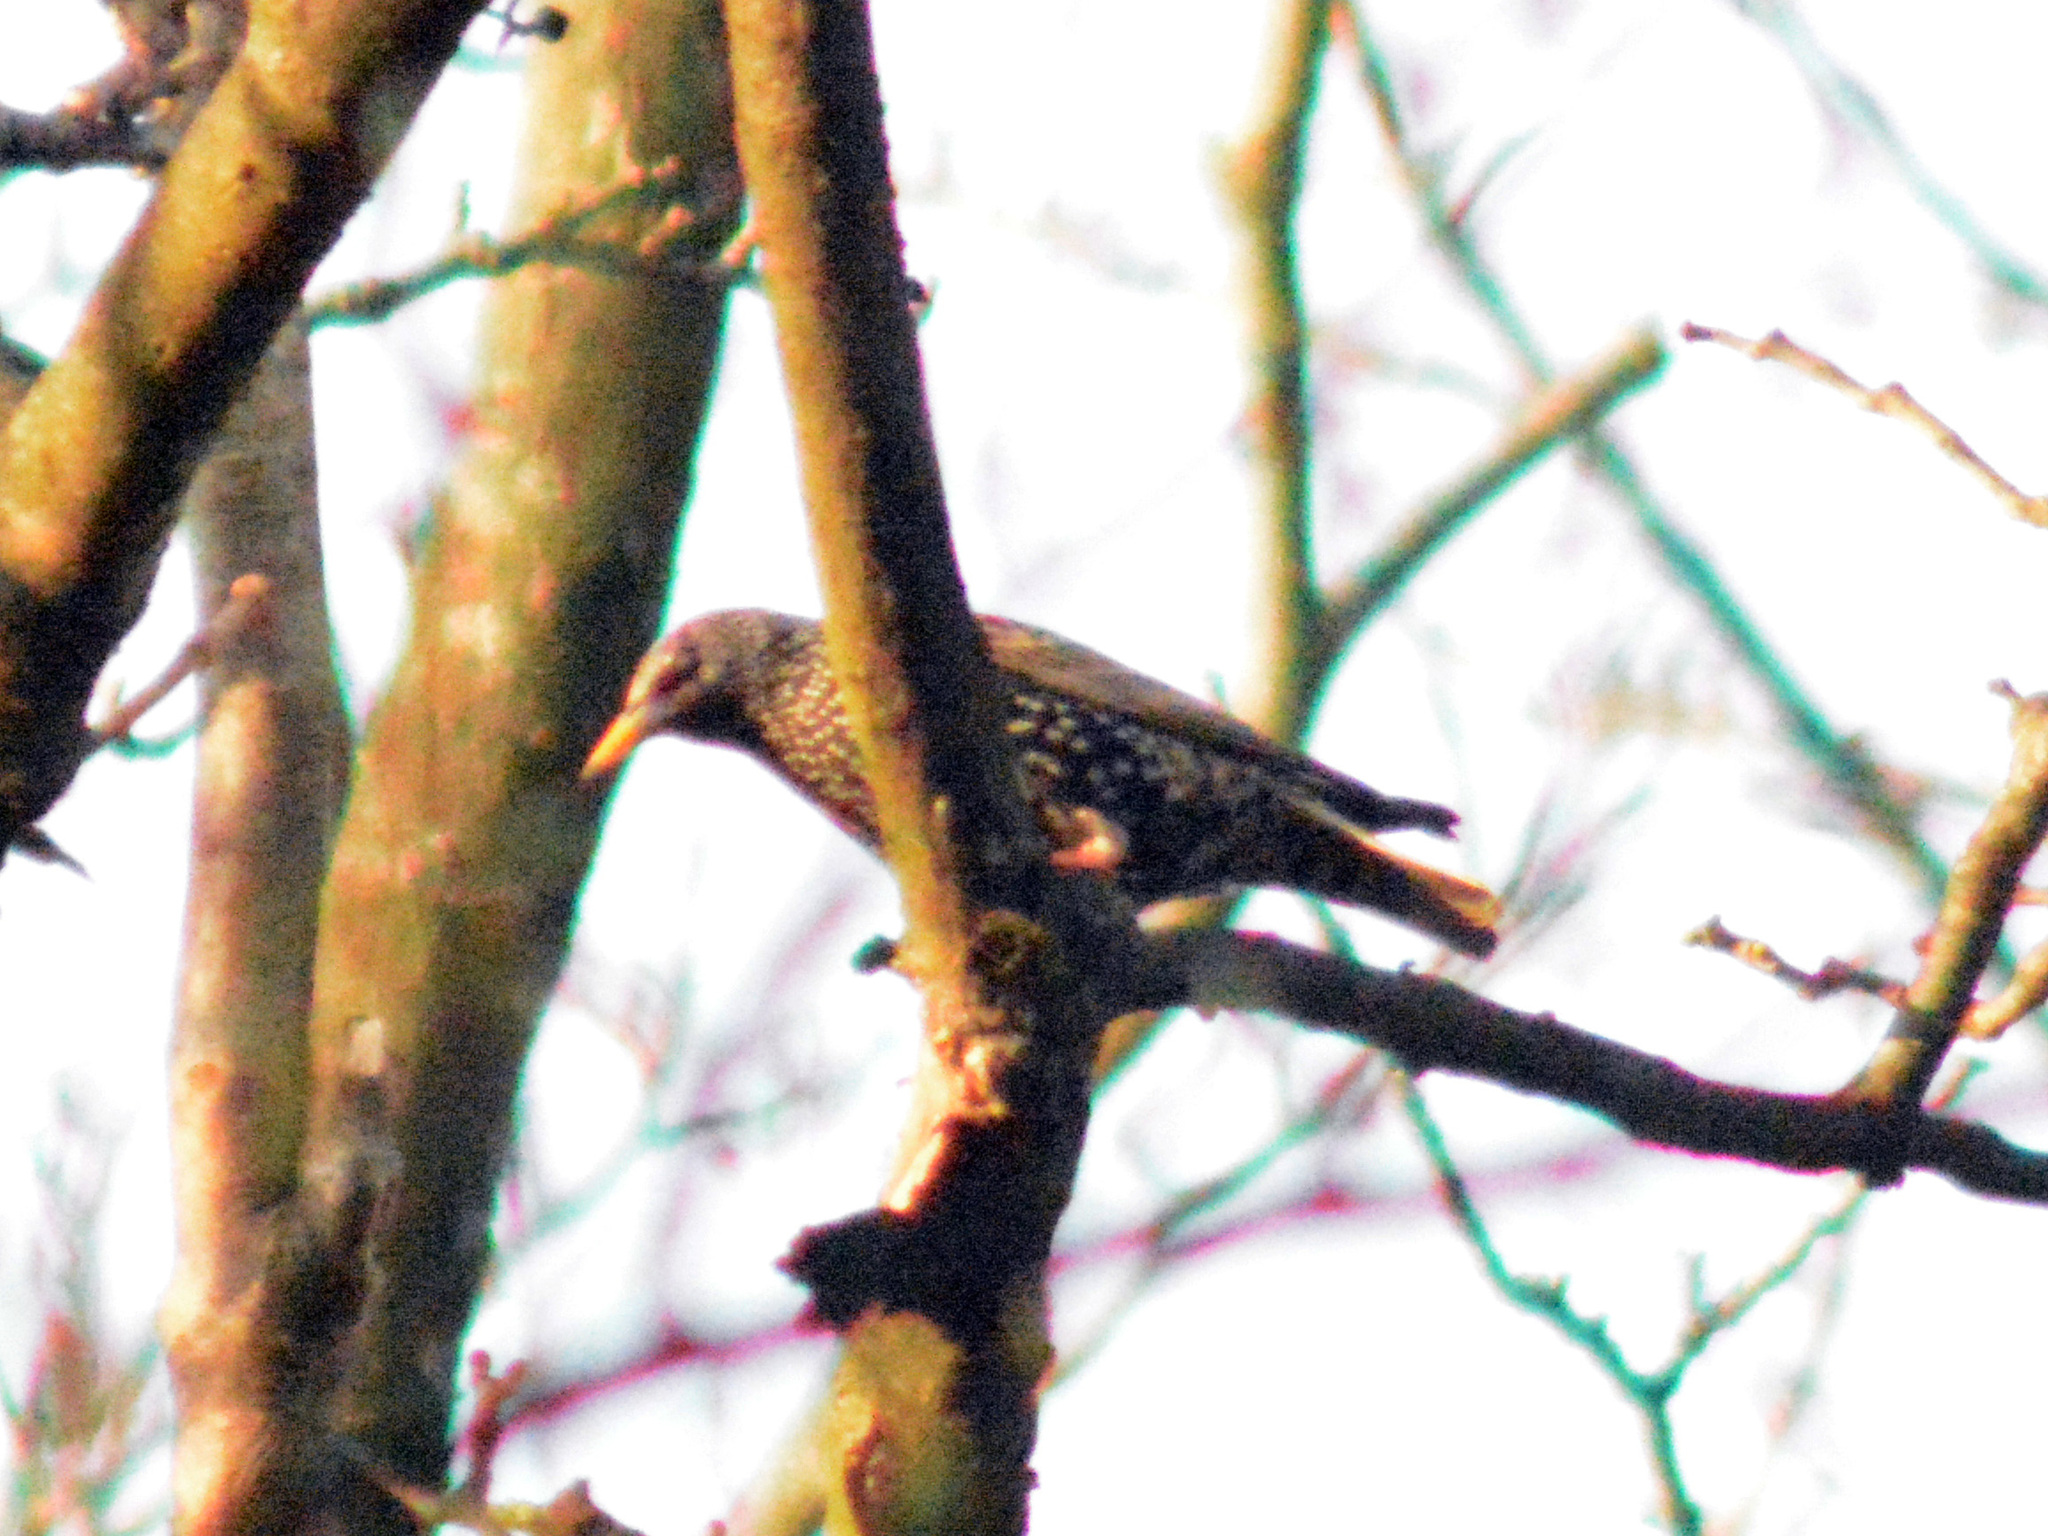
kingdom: Animalia
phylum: Chordata
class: Aves
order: Passeriformes
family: Sturnidae
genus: Sturnus
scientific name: Sturnus vulgaris
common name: Common starling
